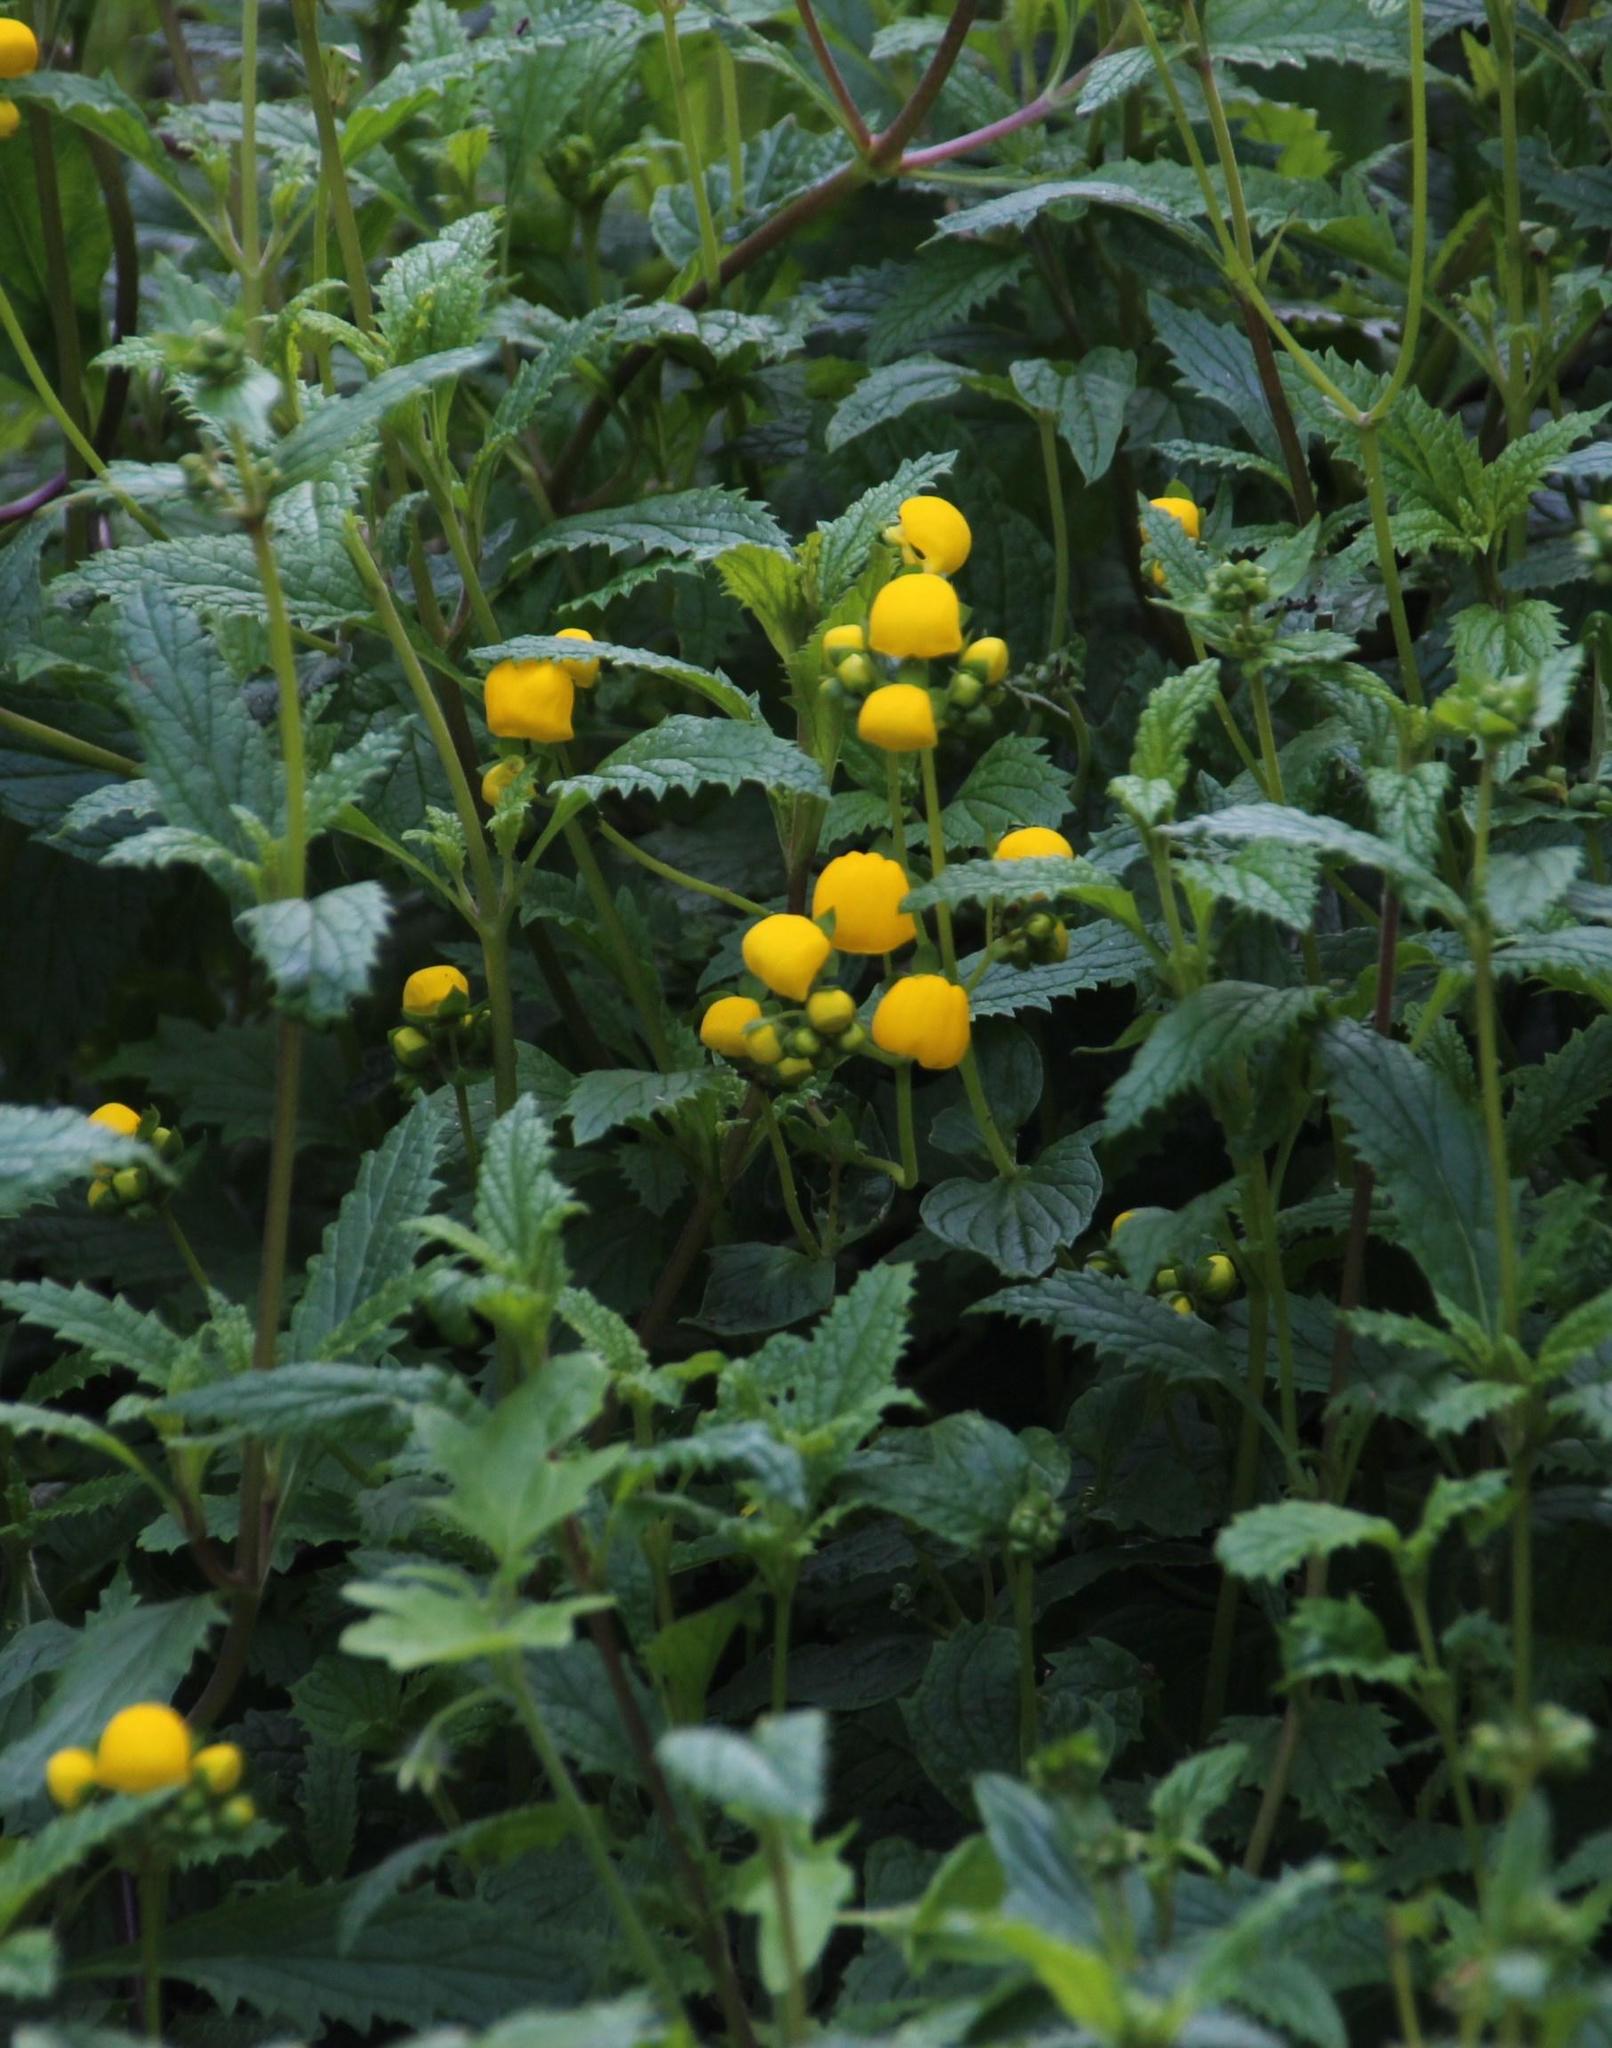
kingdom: Plantae
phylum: Tracheophyta
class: Magnoliopsida
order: Lamiales
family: Calceolariaceae
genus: Calceolaria
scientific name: Calceolaria ascendens
